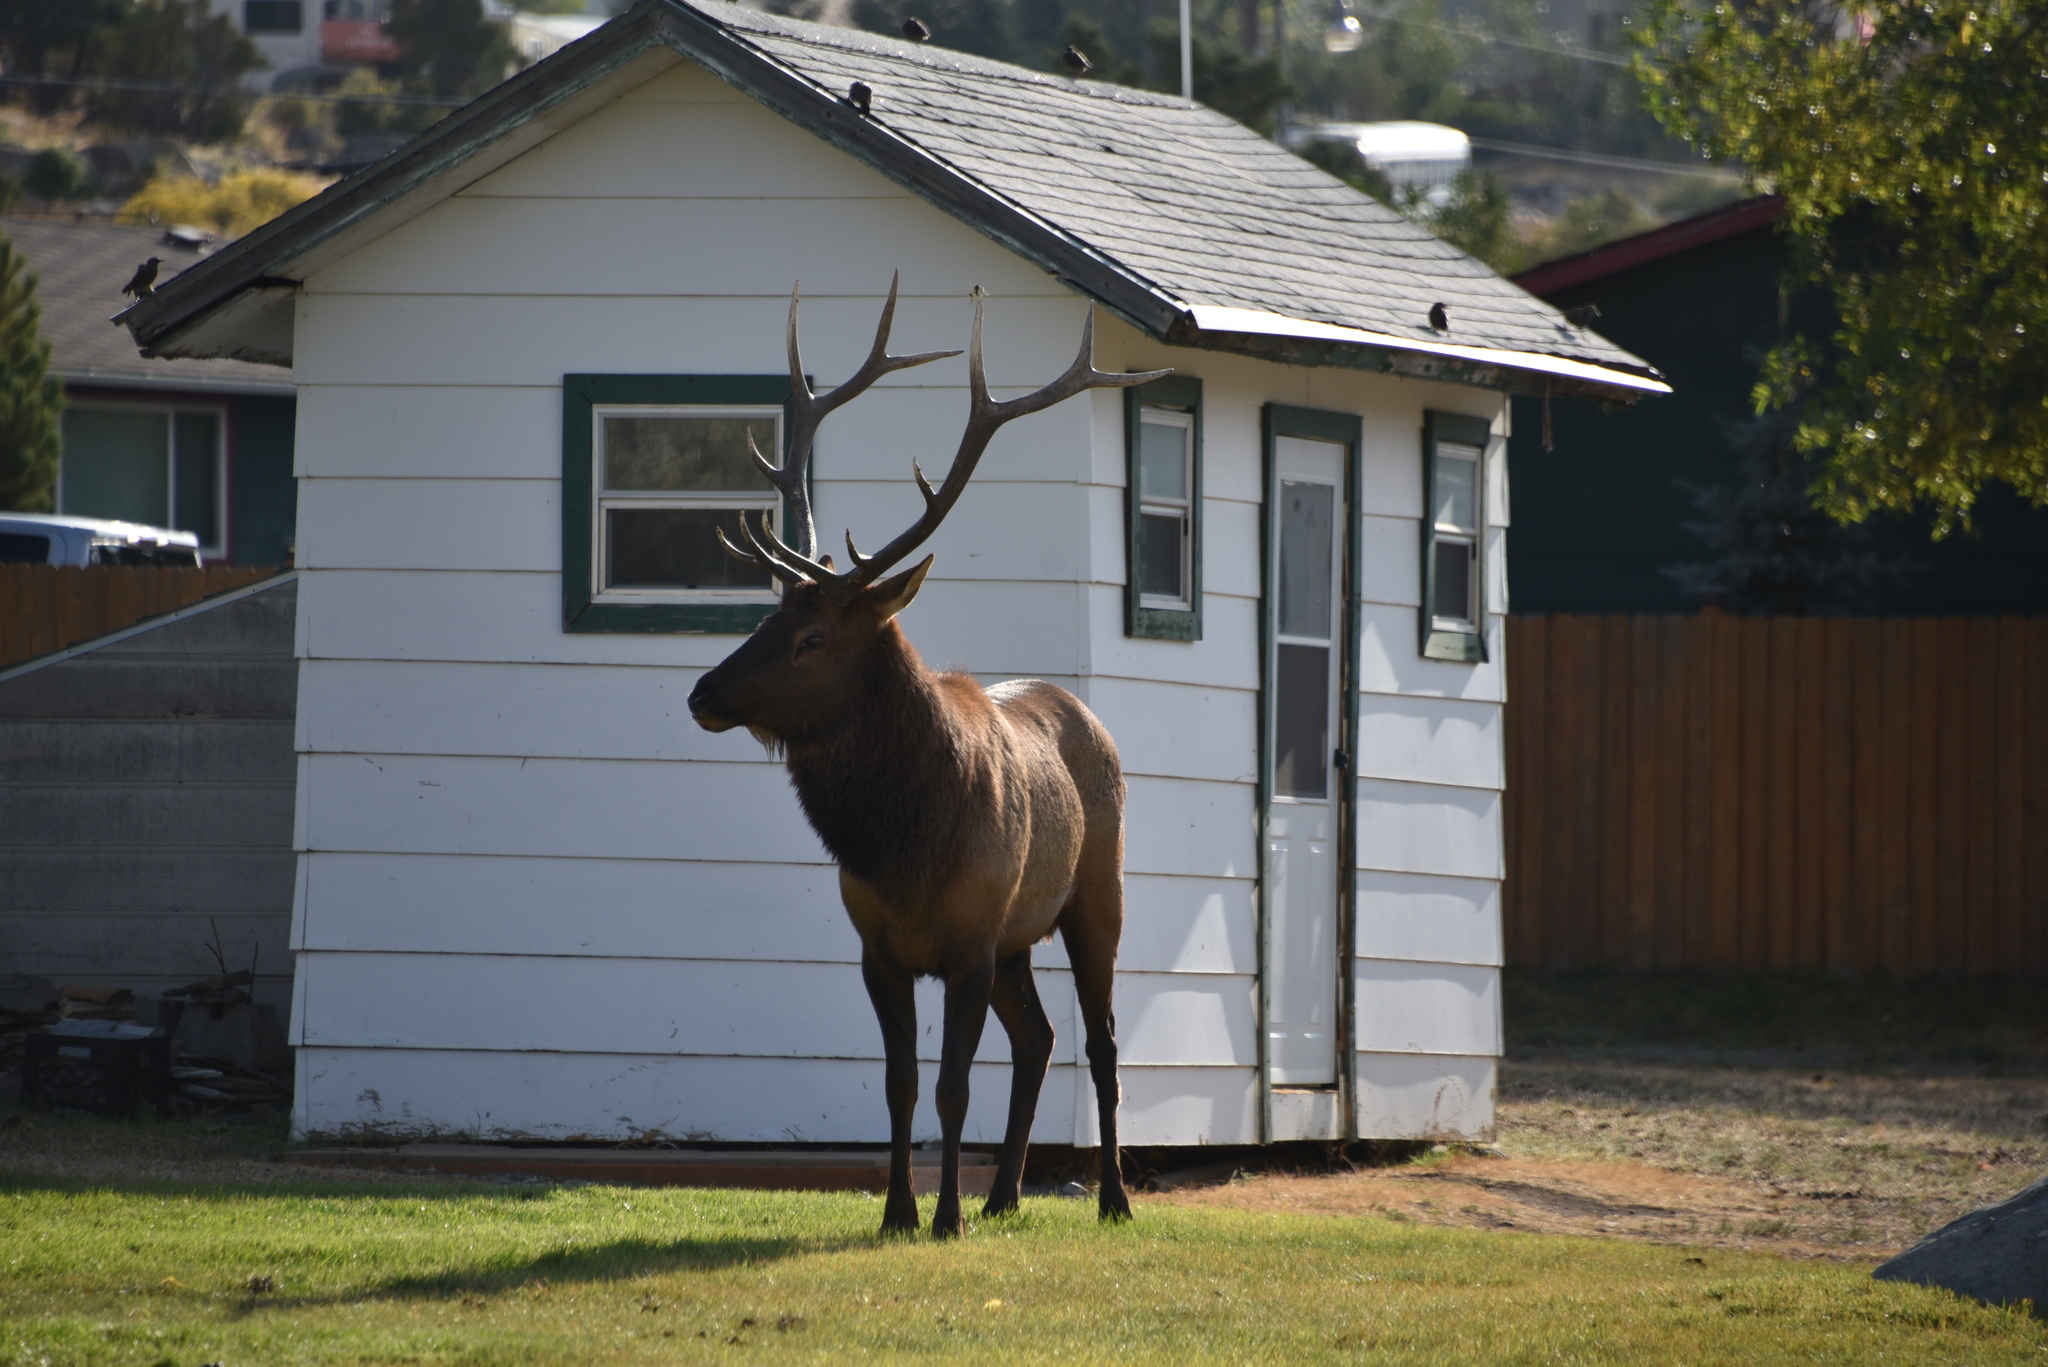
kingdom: Animalia
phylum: Chordata
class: Mammalia
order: Artiodactyla
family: Cervidae
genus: Cervus
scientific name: Cervus elaphus
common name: Red deer
